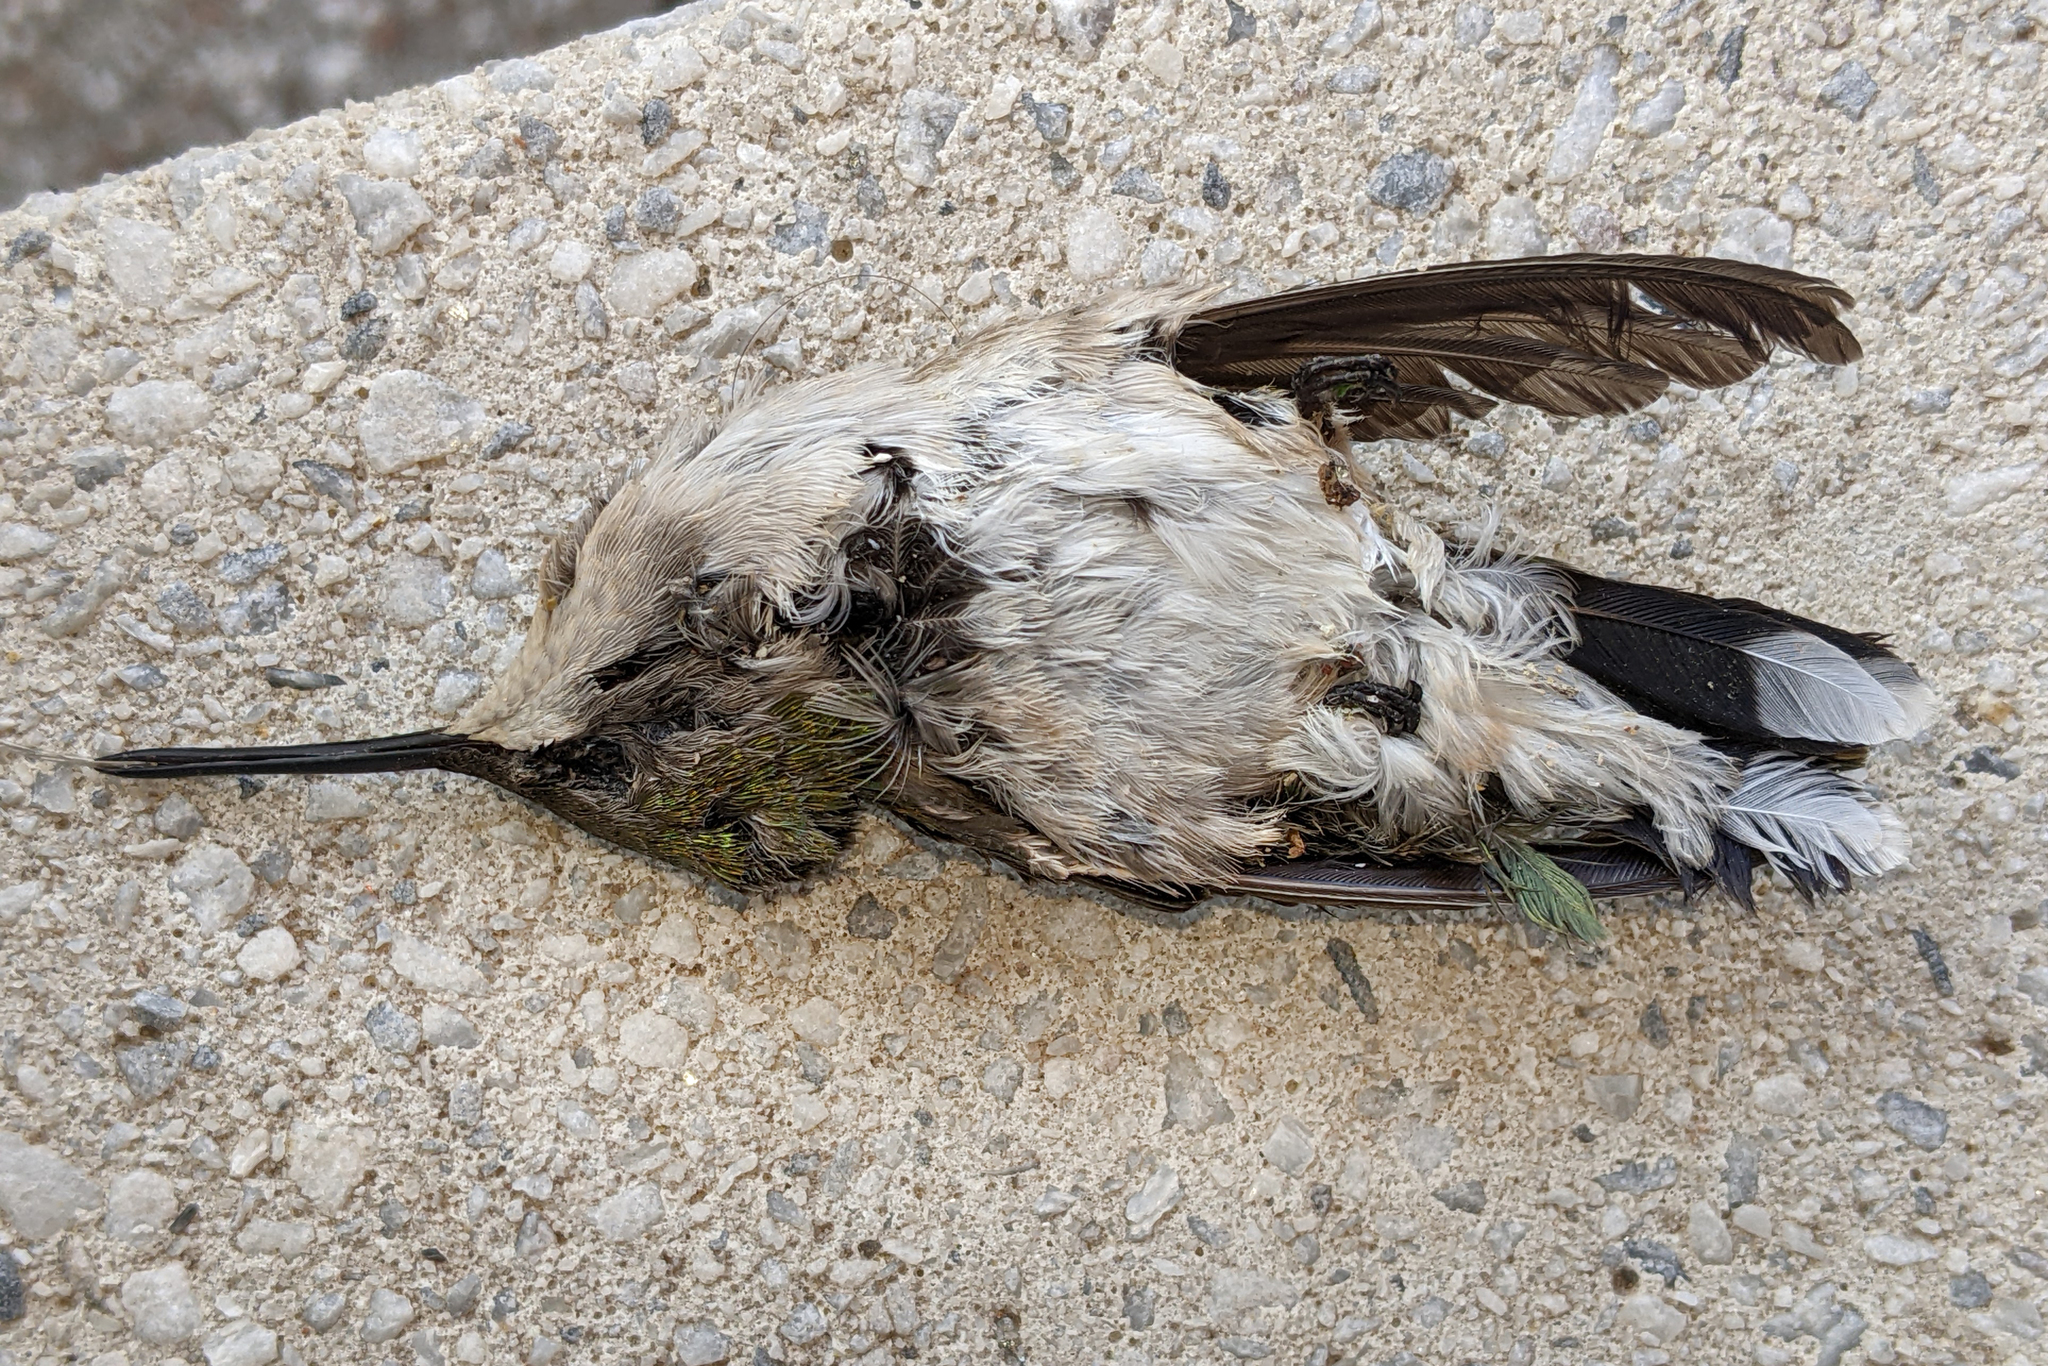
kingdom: Animalia
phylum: Chordata
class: Aves
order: Apodiformes
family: Trochilidae
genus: Archilochus
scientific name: Archilochus colubris
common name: Ruby-throated hummingbird
